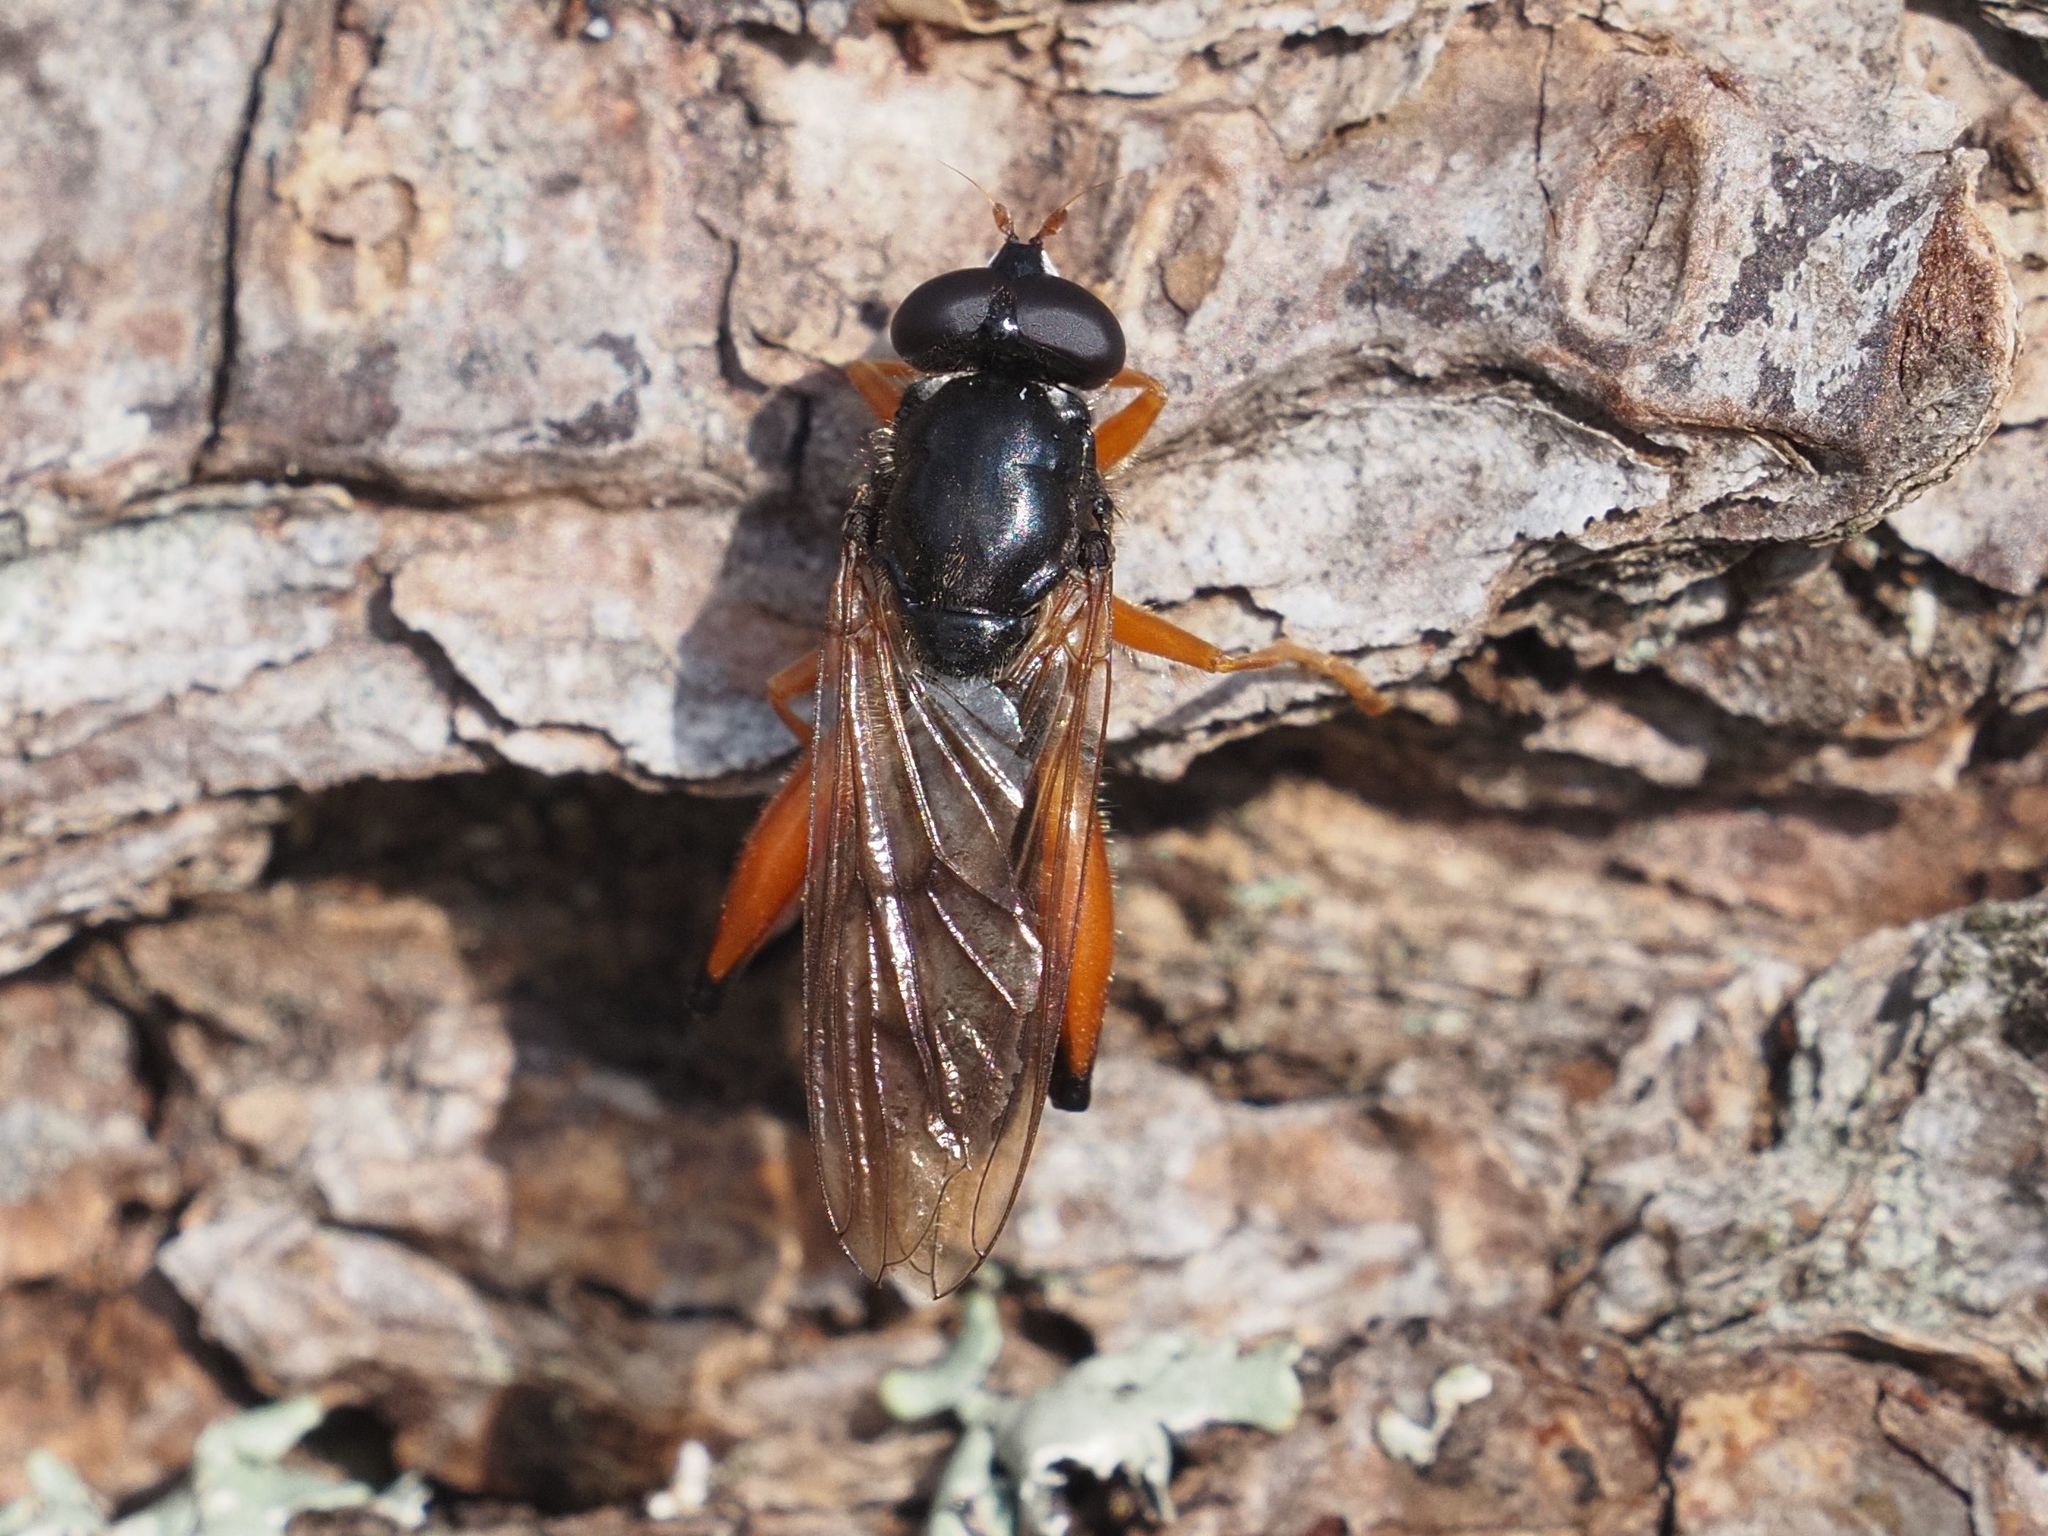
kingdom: Animalia
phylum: Arthropoda
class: Insecta
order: Diptera
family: Syrphidae
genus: Chalcosyrphus
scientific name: Chalcosyrphus valgus
